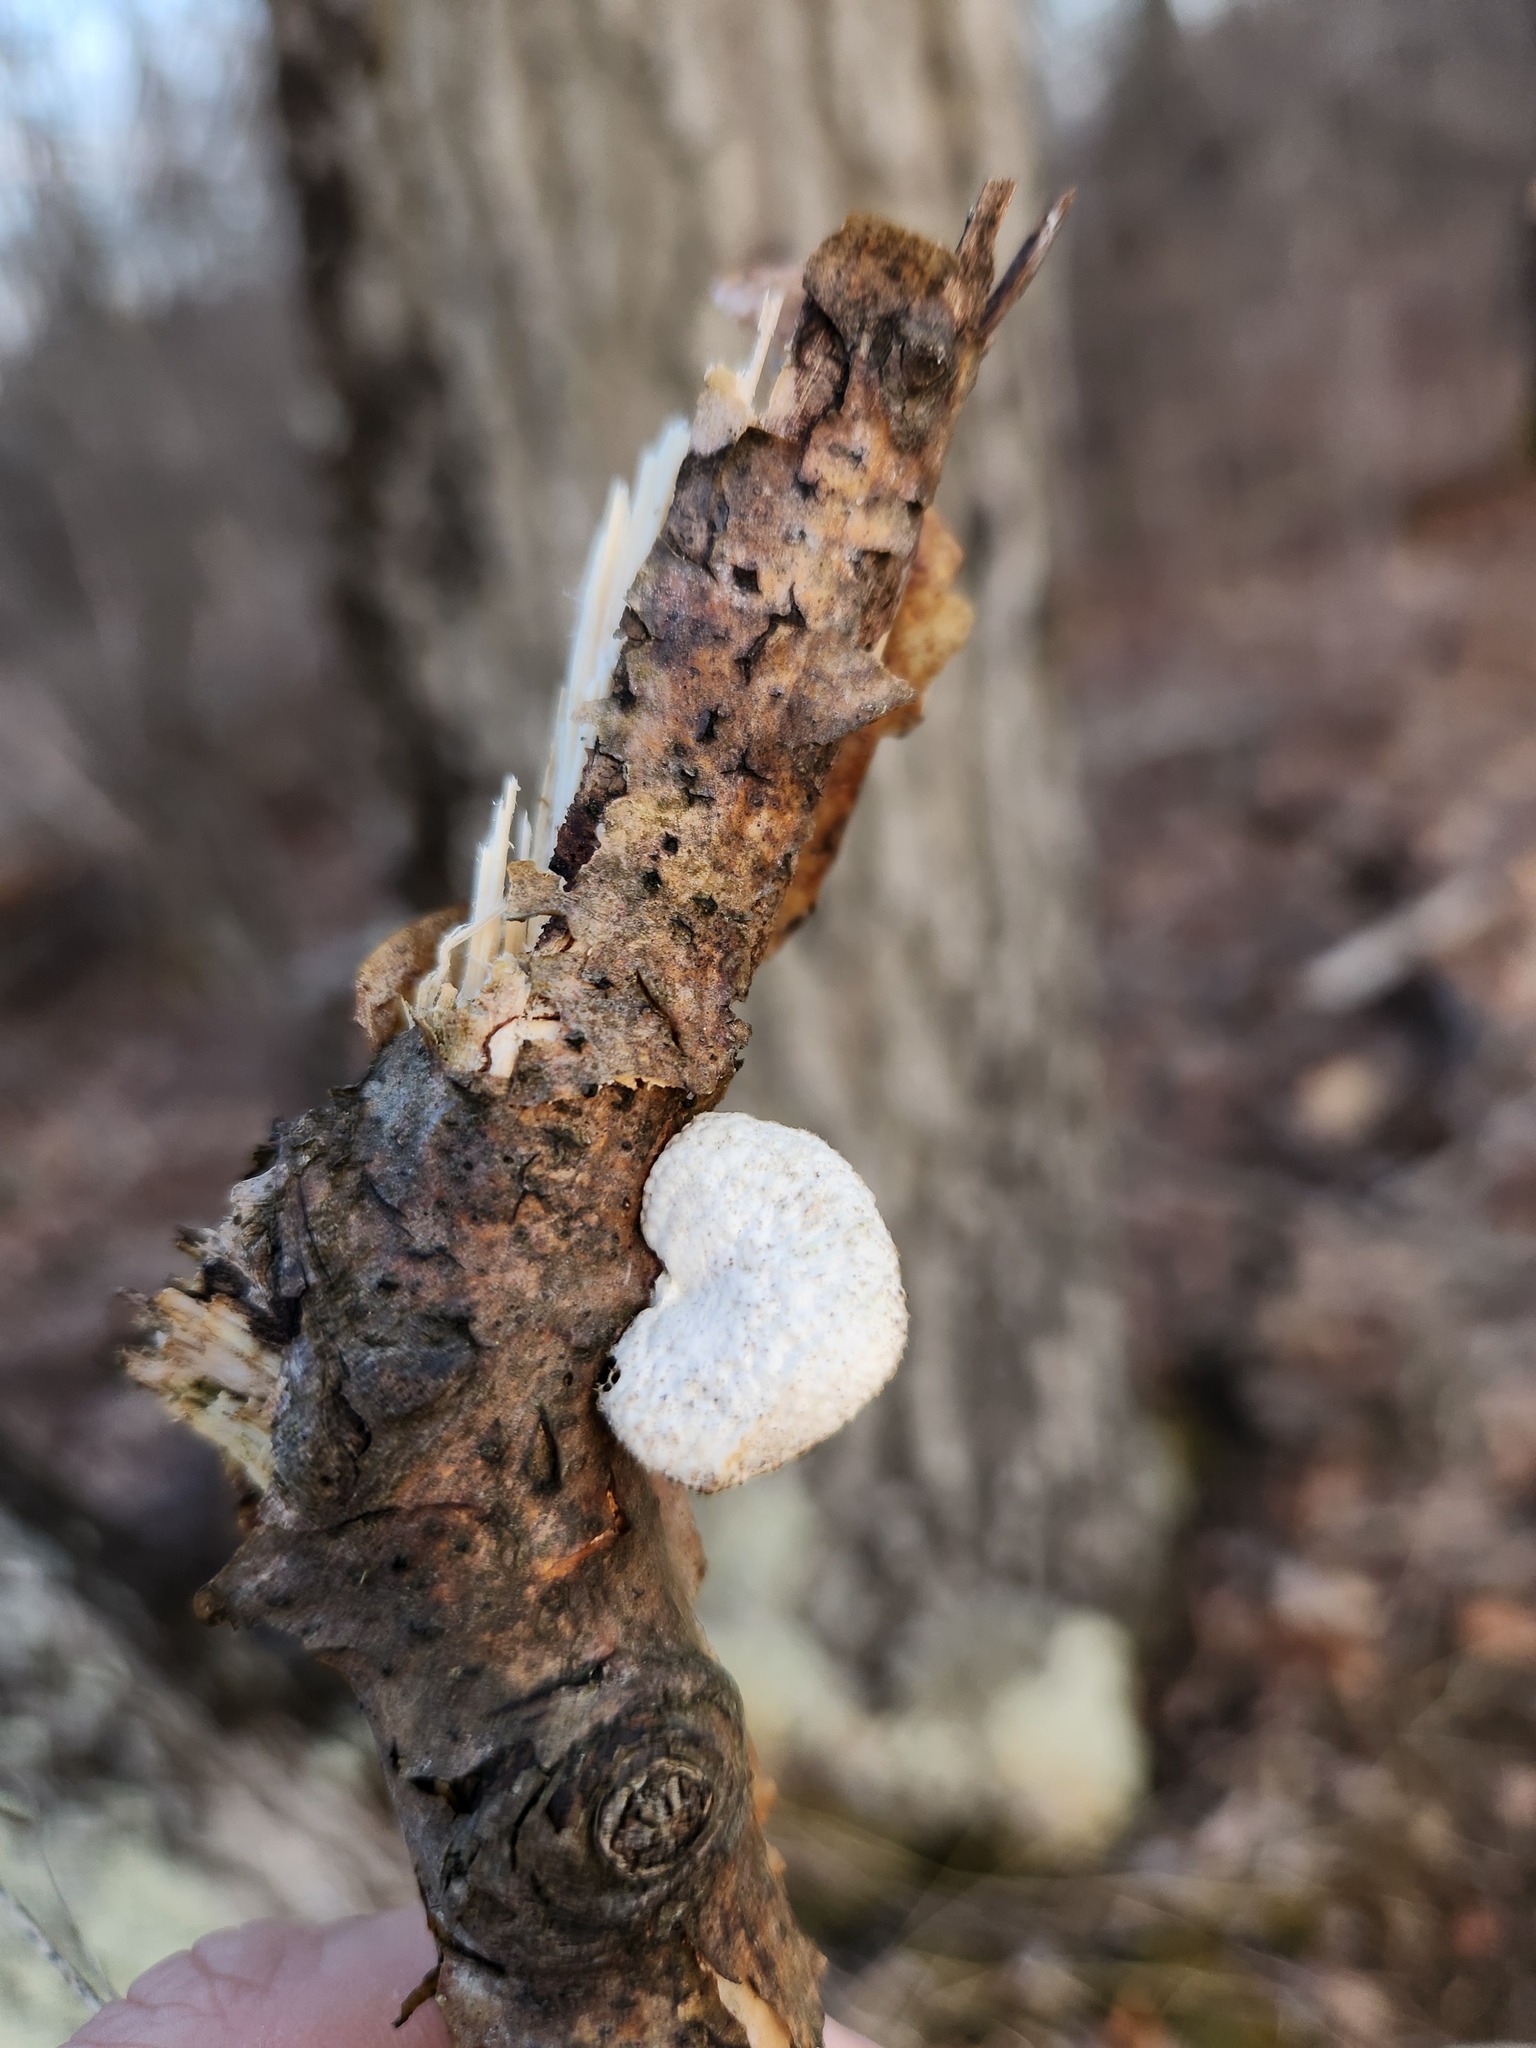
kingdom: Fungi
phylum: Basidiomycota
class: Agaricomycetes
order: Polyporales
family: Polyporaceae
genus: Neofavolus
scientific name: Neofavolus americanus
